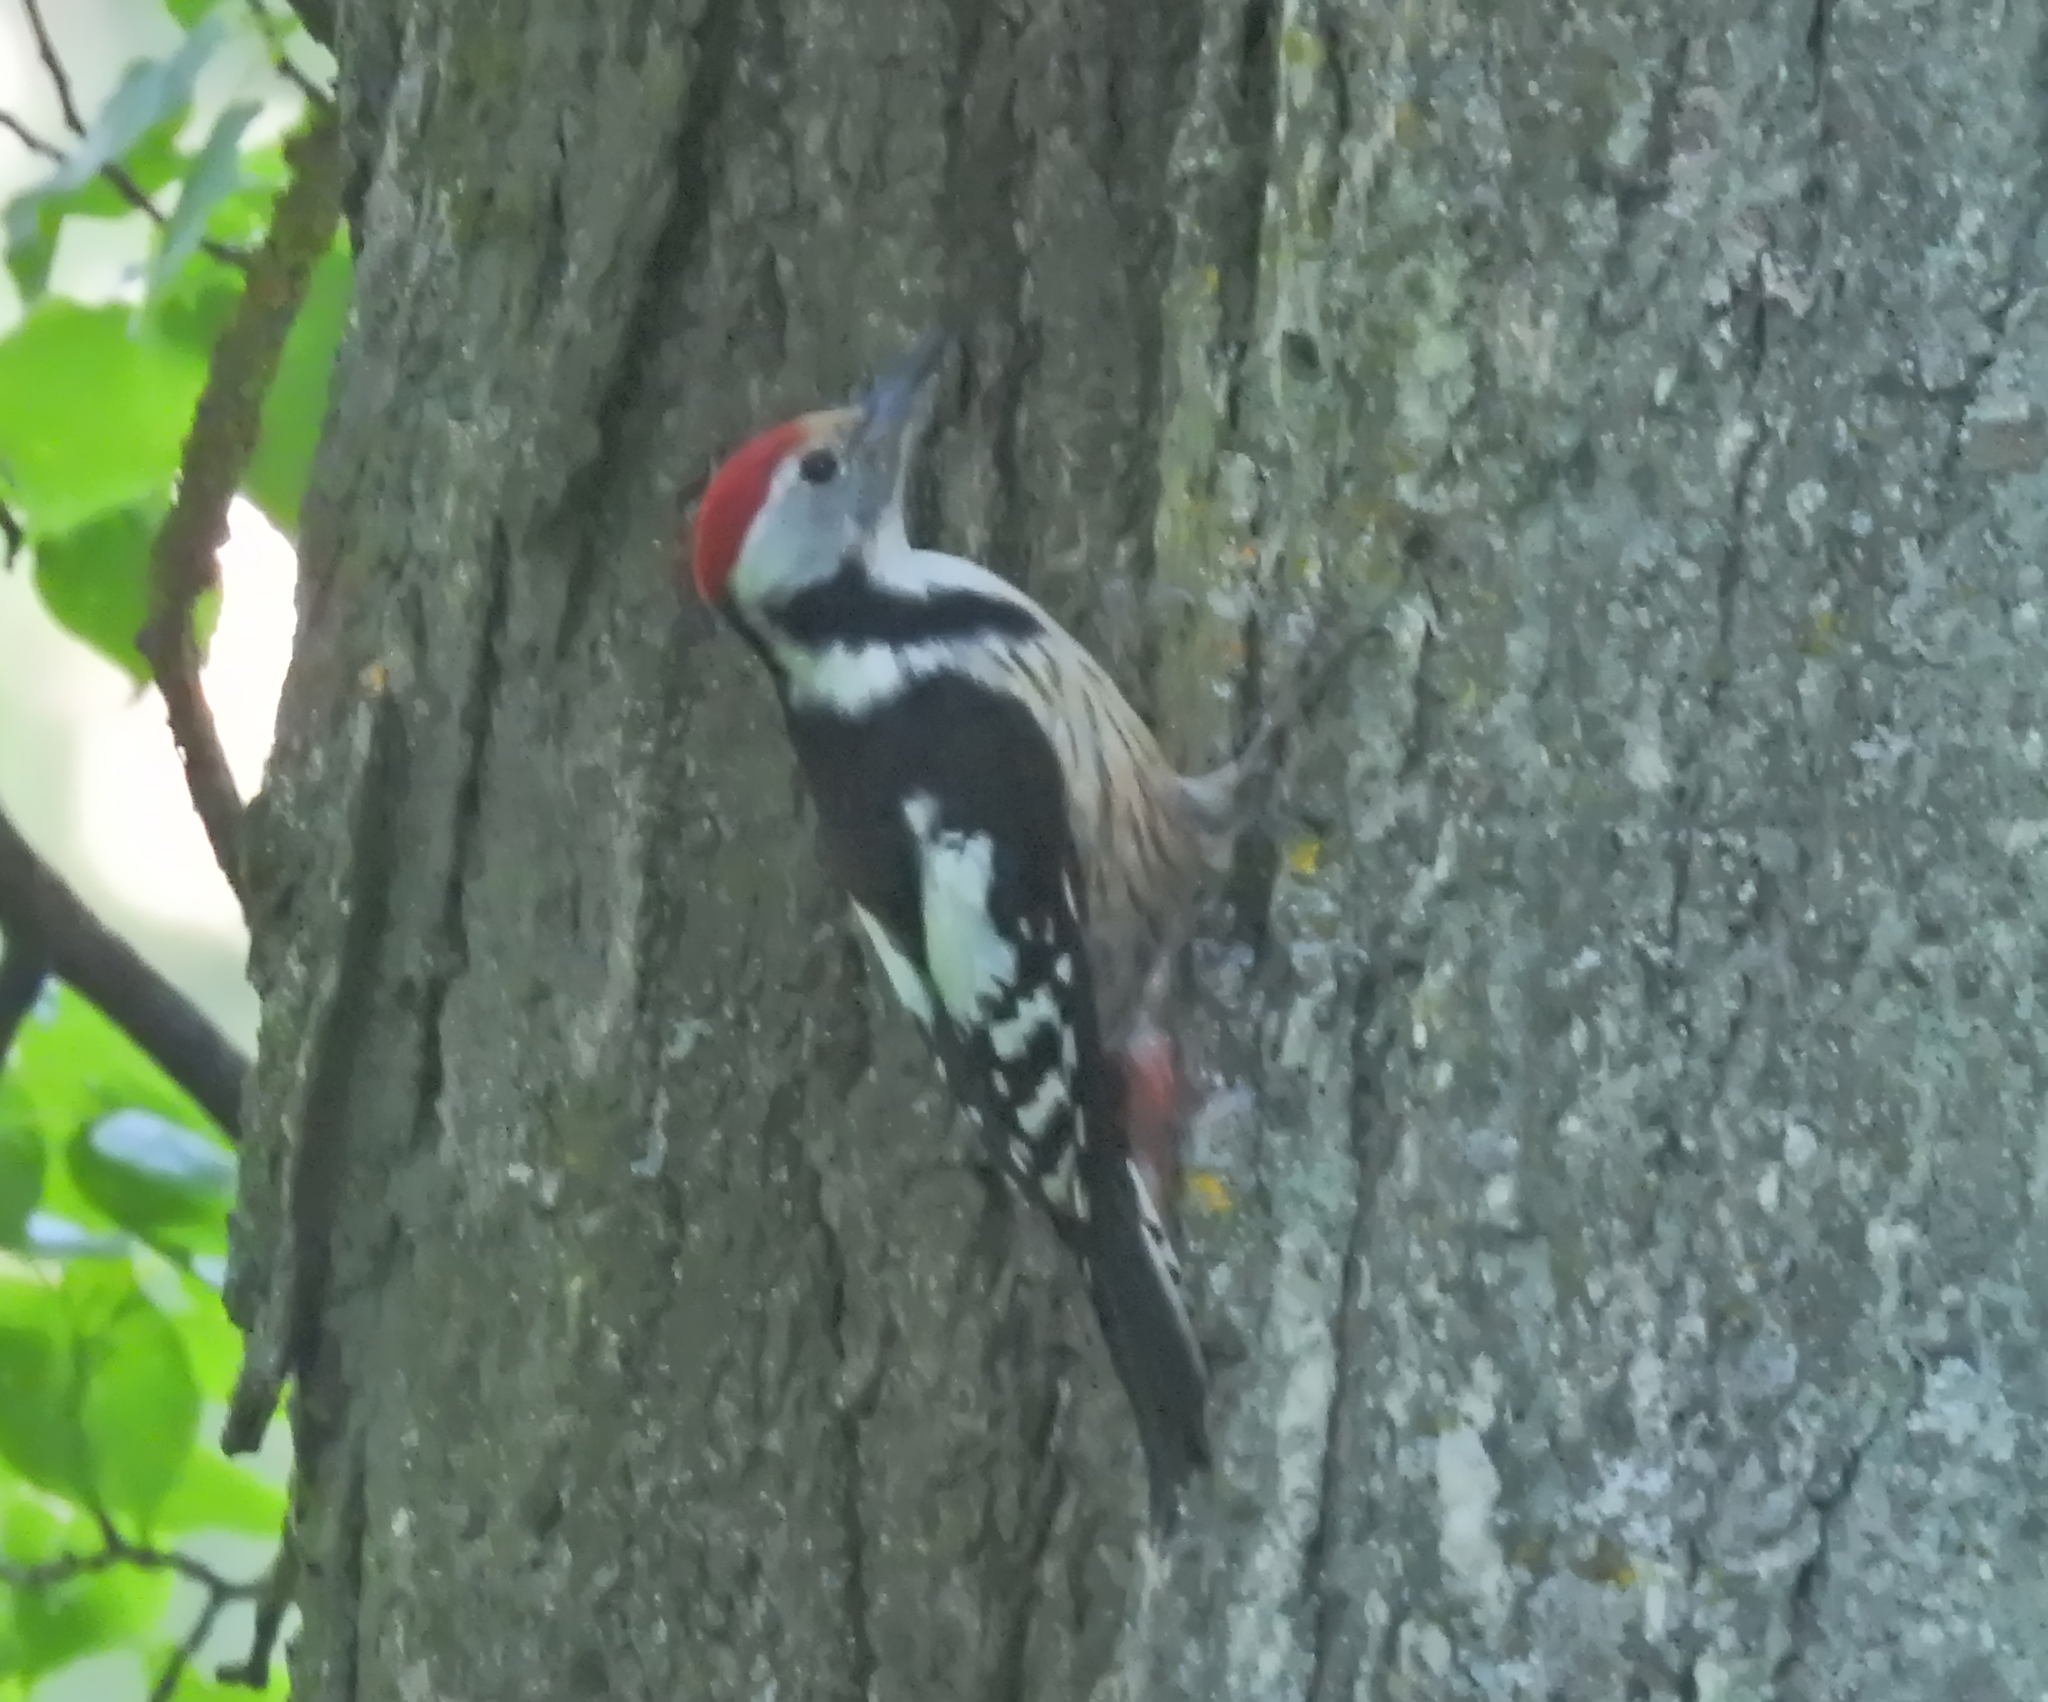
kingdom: Animalia
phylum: Chordata
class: Aves
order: Piciformes
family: Picidae
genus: Dendrocoptes
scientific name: Dendrocoptes medius
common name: Middle spotted woodpecker
